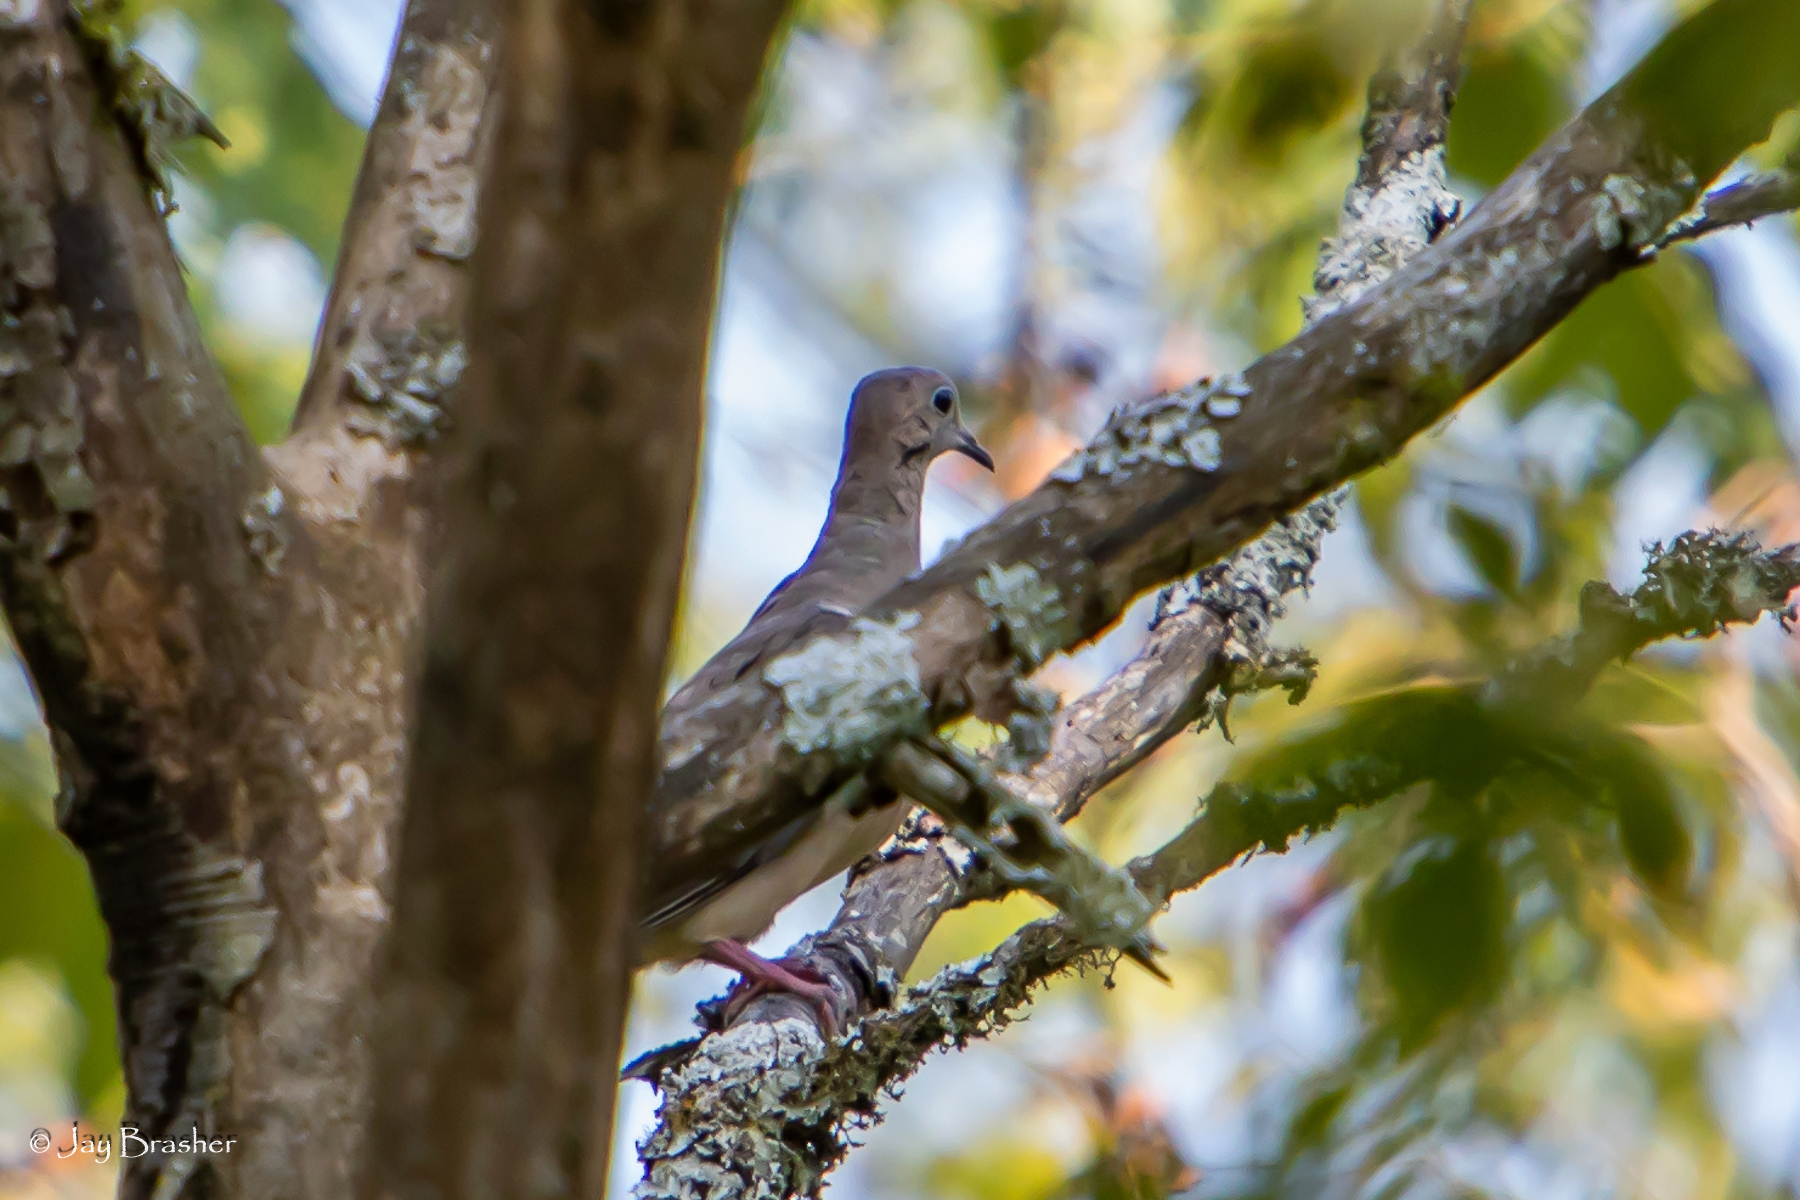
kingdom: Animalia
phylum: Chordata
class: Aves
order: Columbiformes
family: Columbidae
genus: Zenaida
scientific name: Zenaida macroura
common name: Mourning dove
